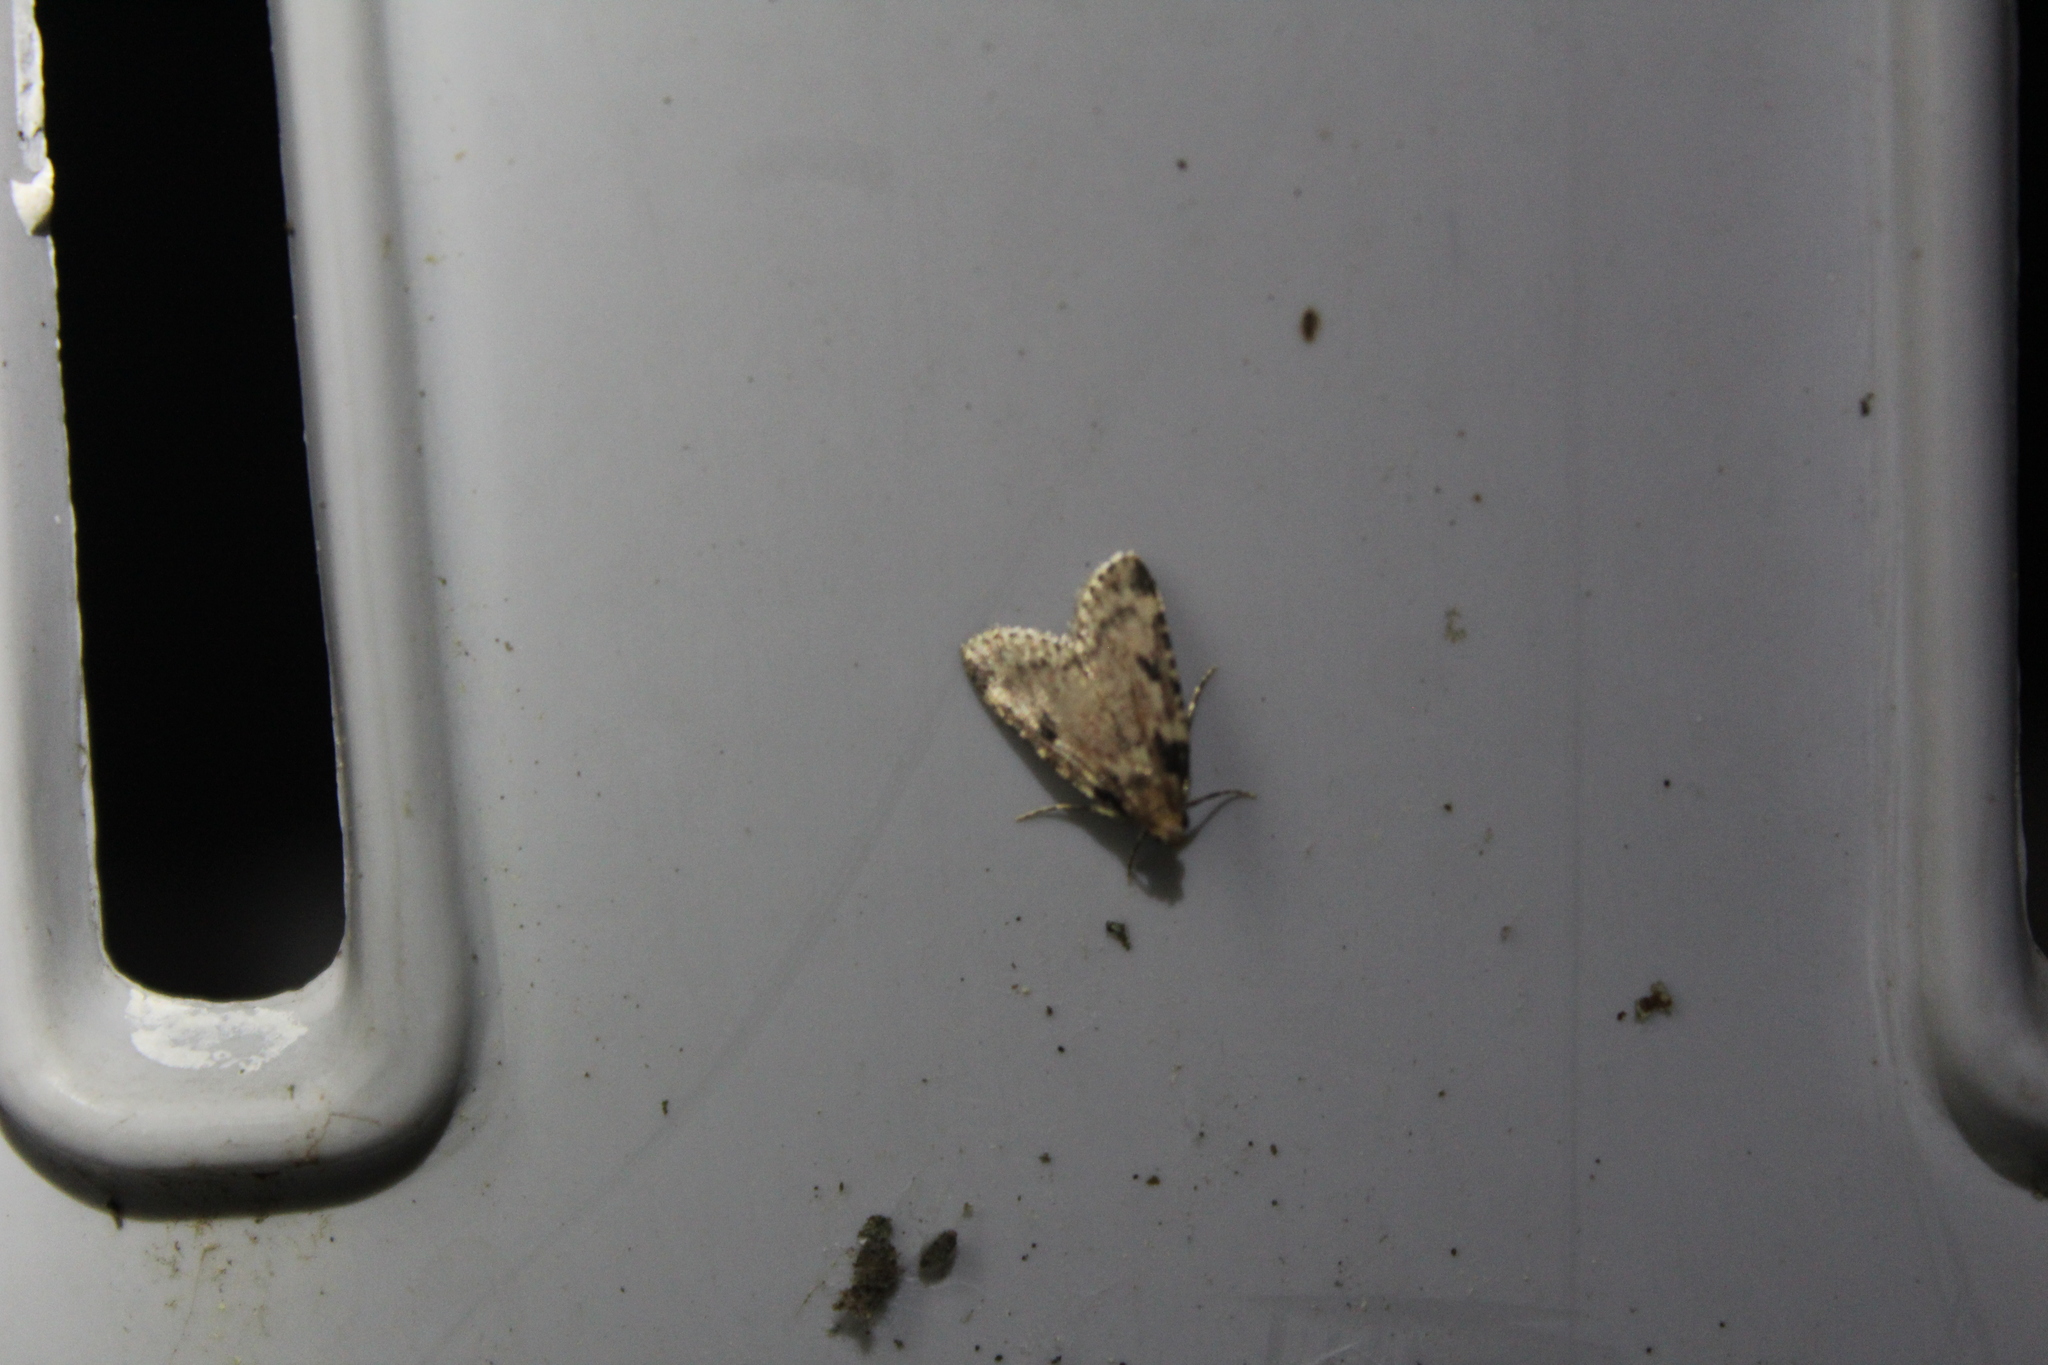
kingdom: Animalia
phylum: Arthropoda
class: Insecta
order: Lepidoptera
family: Pyralidae
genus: Aglossa
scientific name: Aglossa costiferalis
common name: Calico pyralid moth
